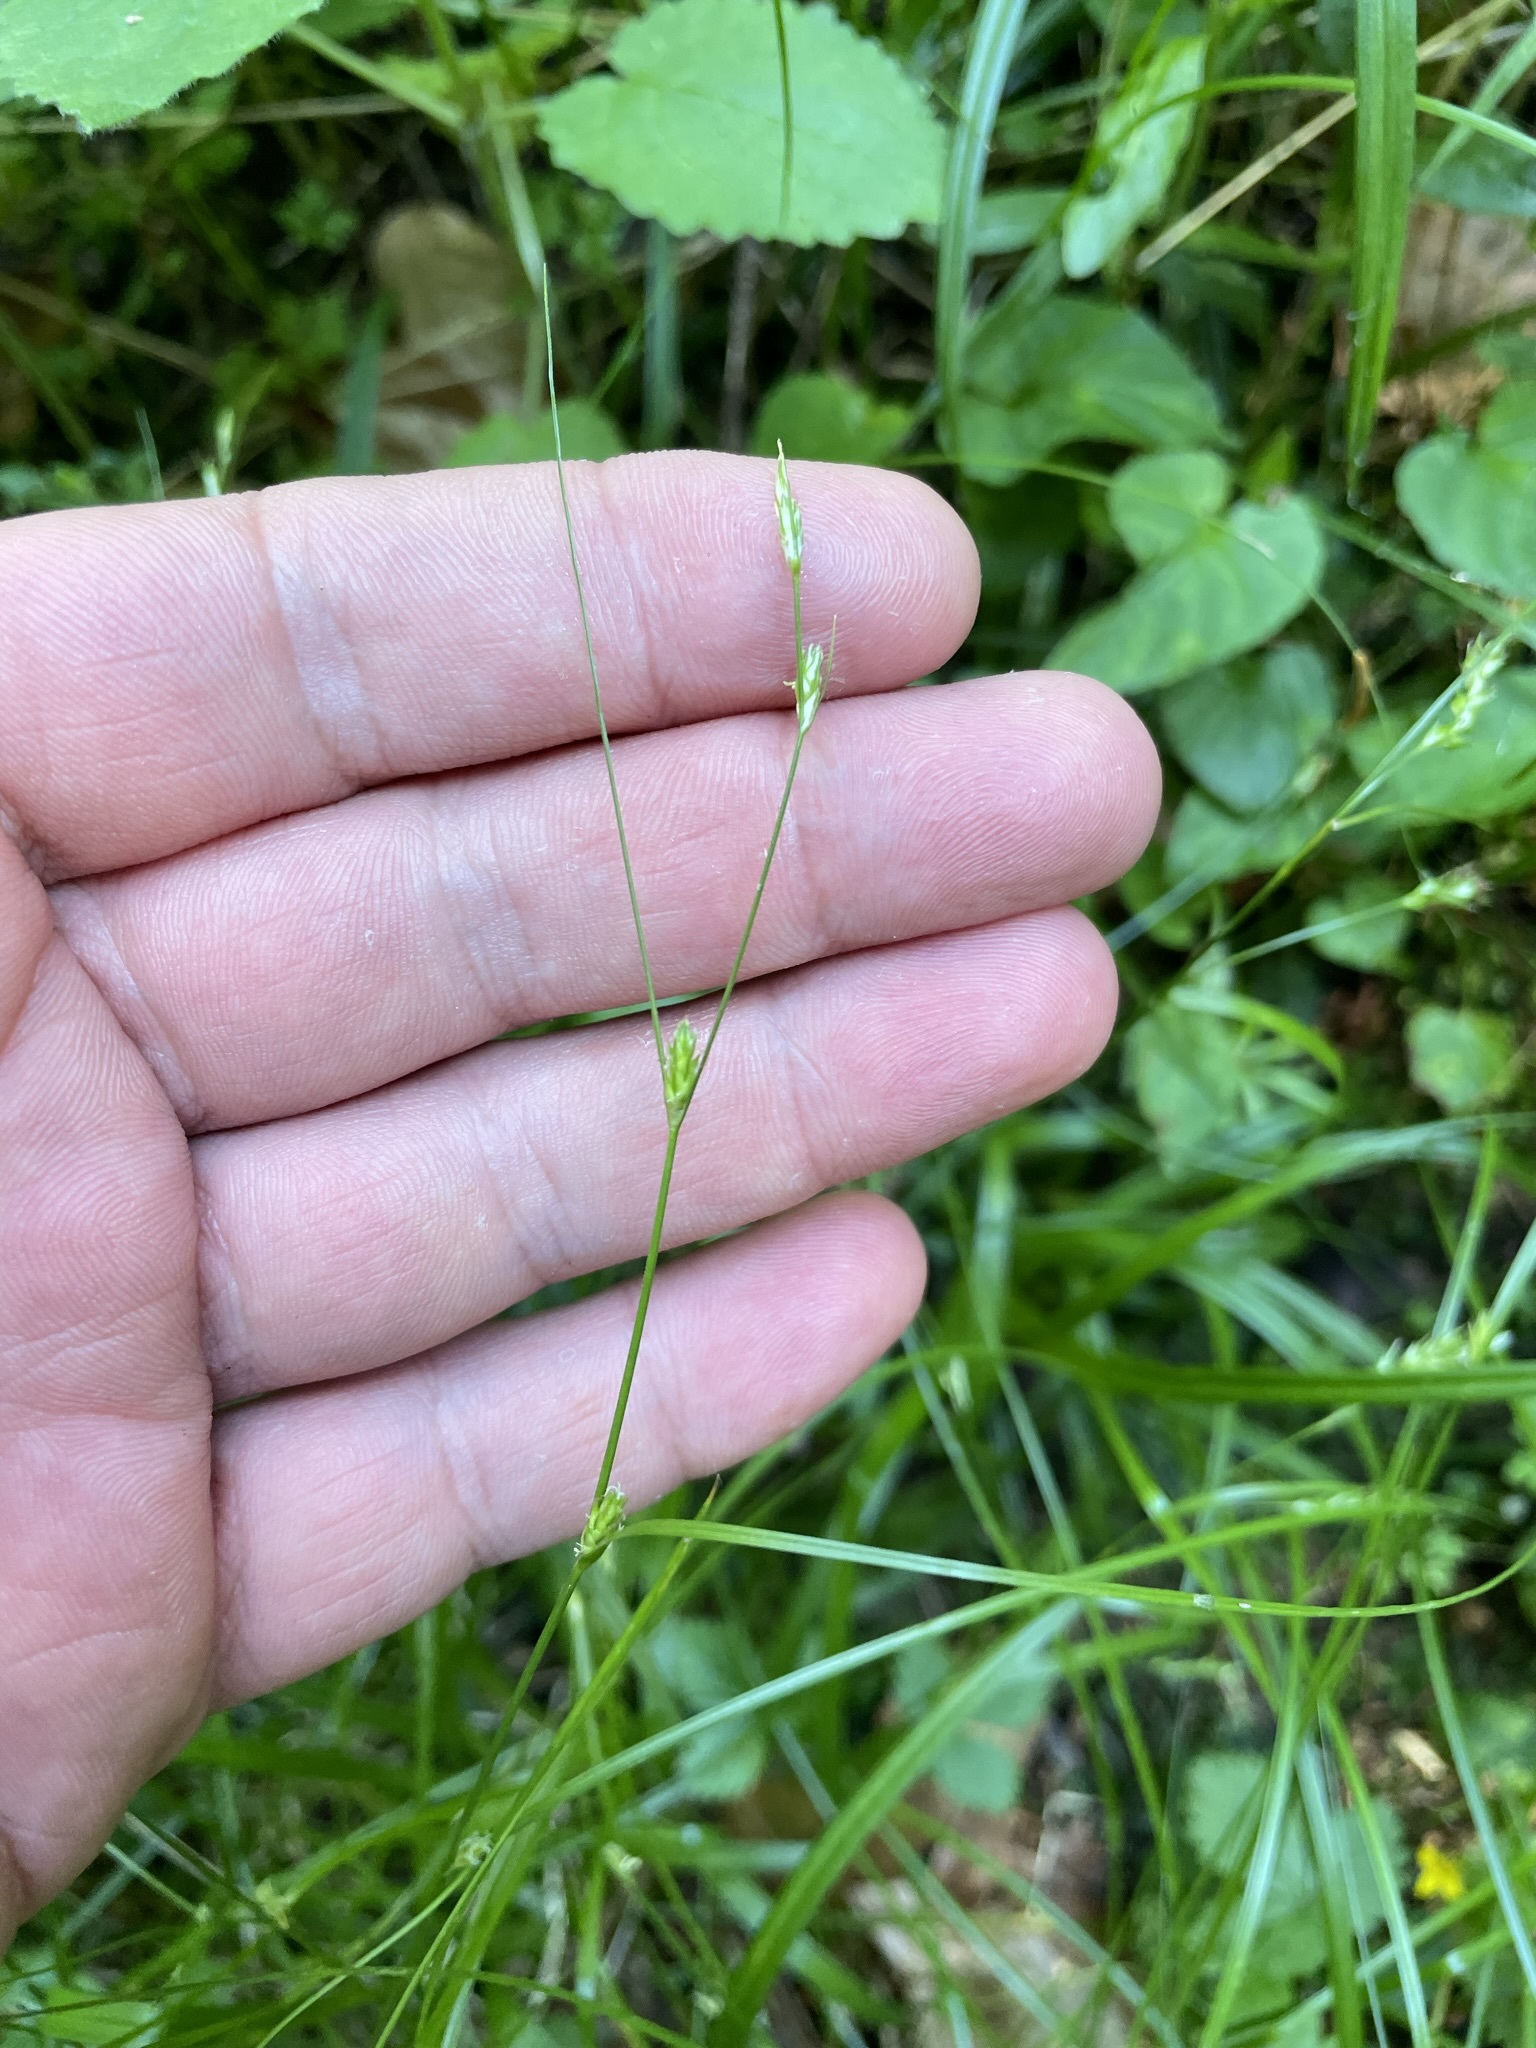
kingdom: Plantae
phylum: Tracheophyta
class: Liliopsida
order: Poales
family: Cyperaceae
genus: Carex
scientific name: Carex remota
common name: Remote sedge
